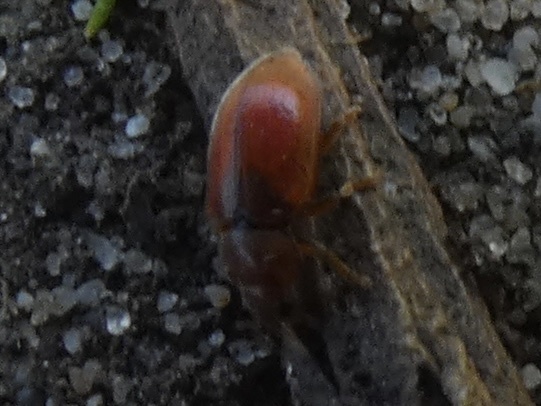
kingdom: Animalia
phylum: Arthropoda
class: Insecta
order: Coleoptera
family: Coccinellidae
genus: Coccidula
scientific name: Coccidula rufa
